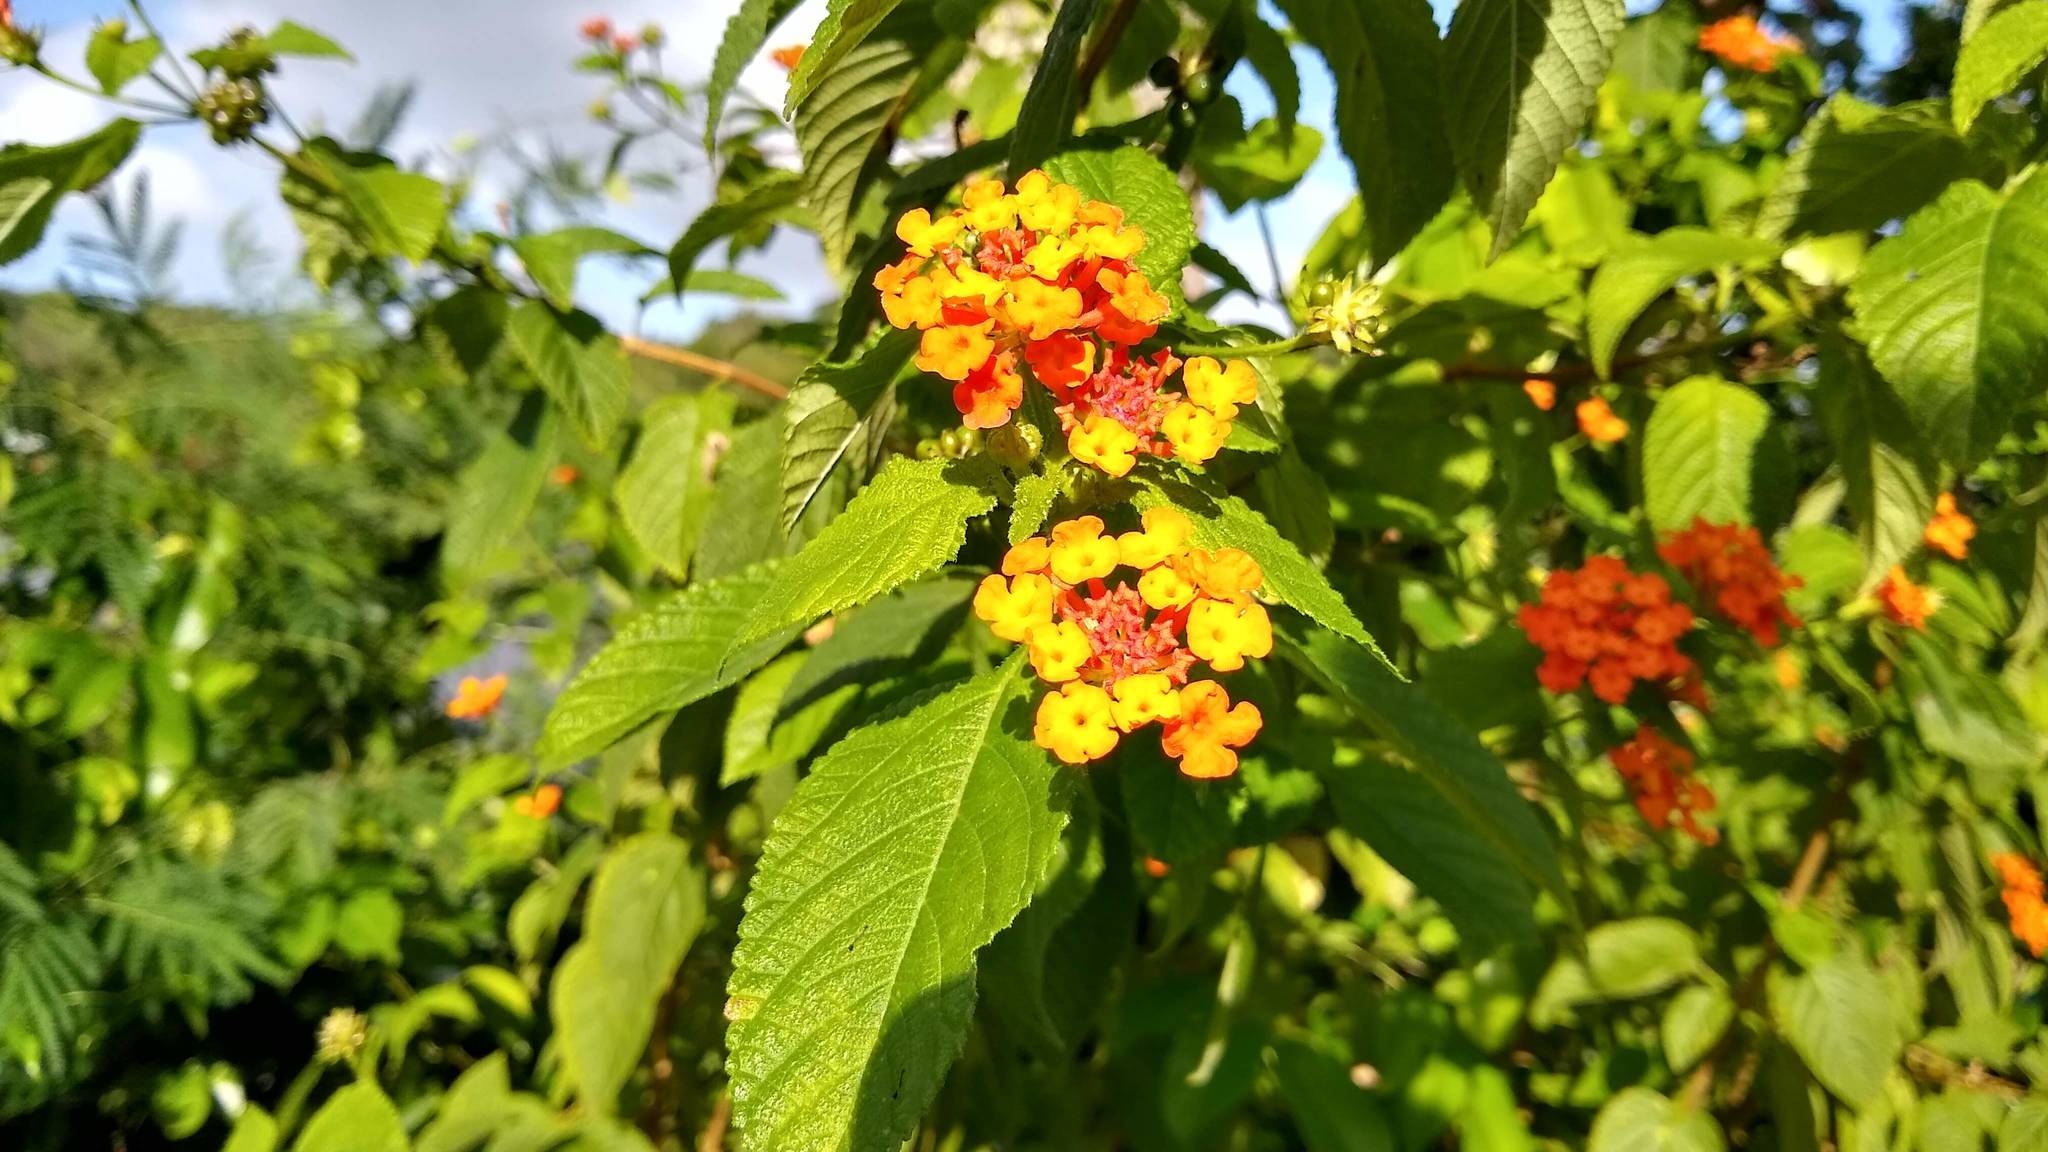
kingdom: Plantae
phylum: Tracheophyta
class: Magnoliopsida
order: Lamiales
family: Verbenaceae
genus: Lantana
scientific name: Lantana camara
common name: Lantana
